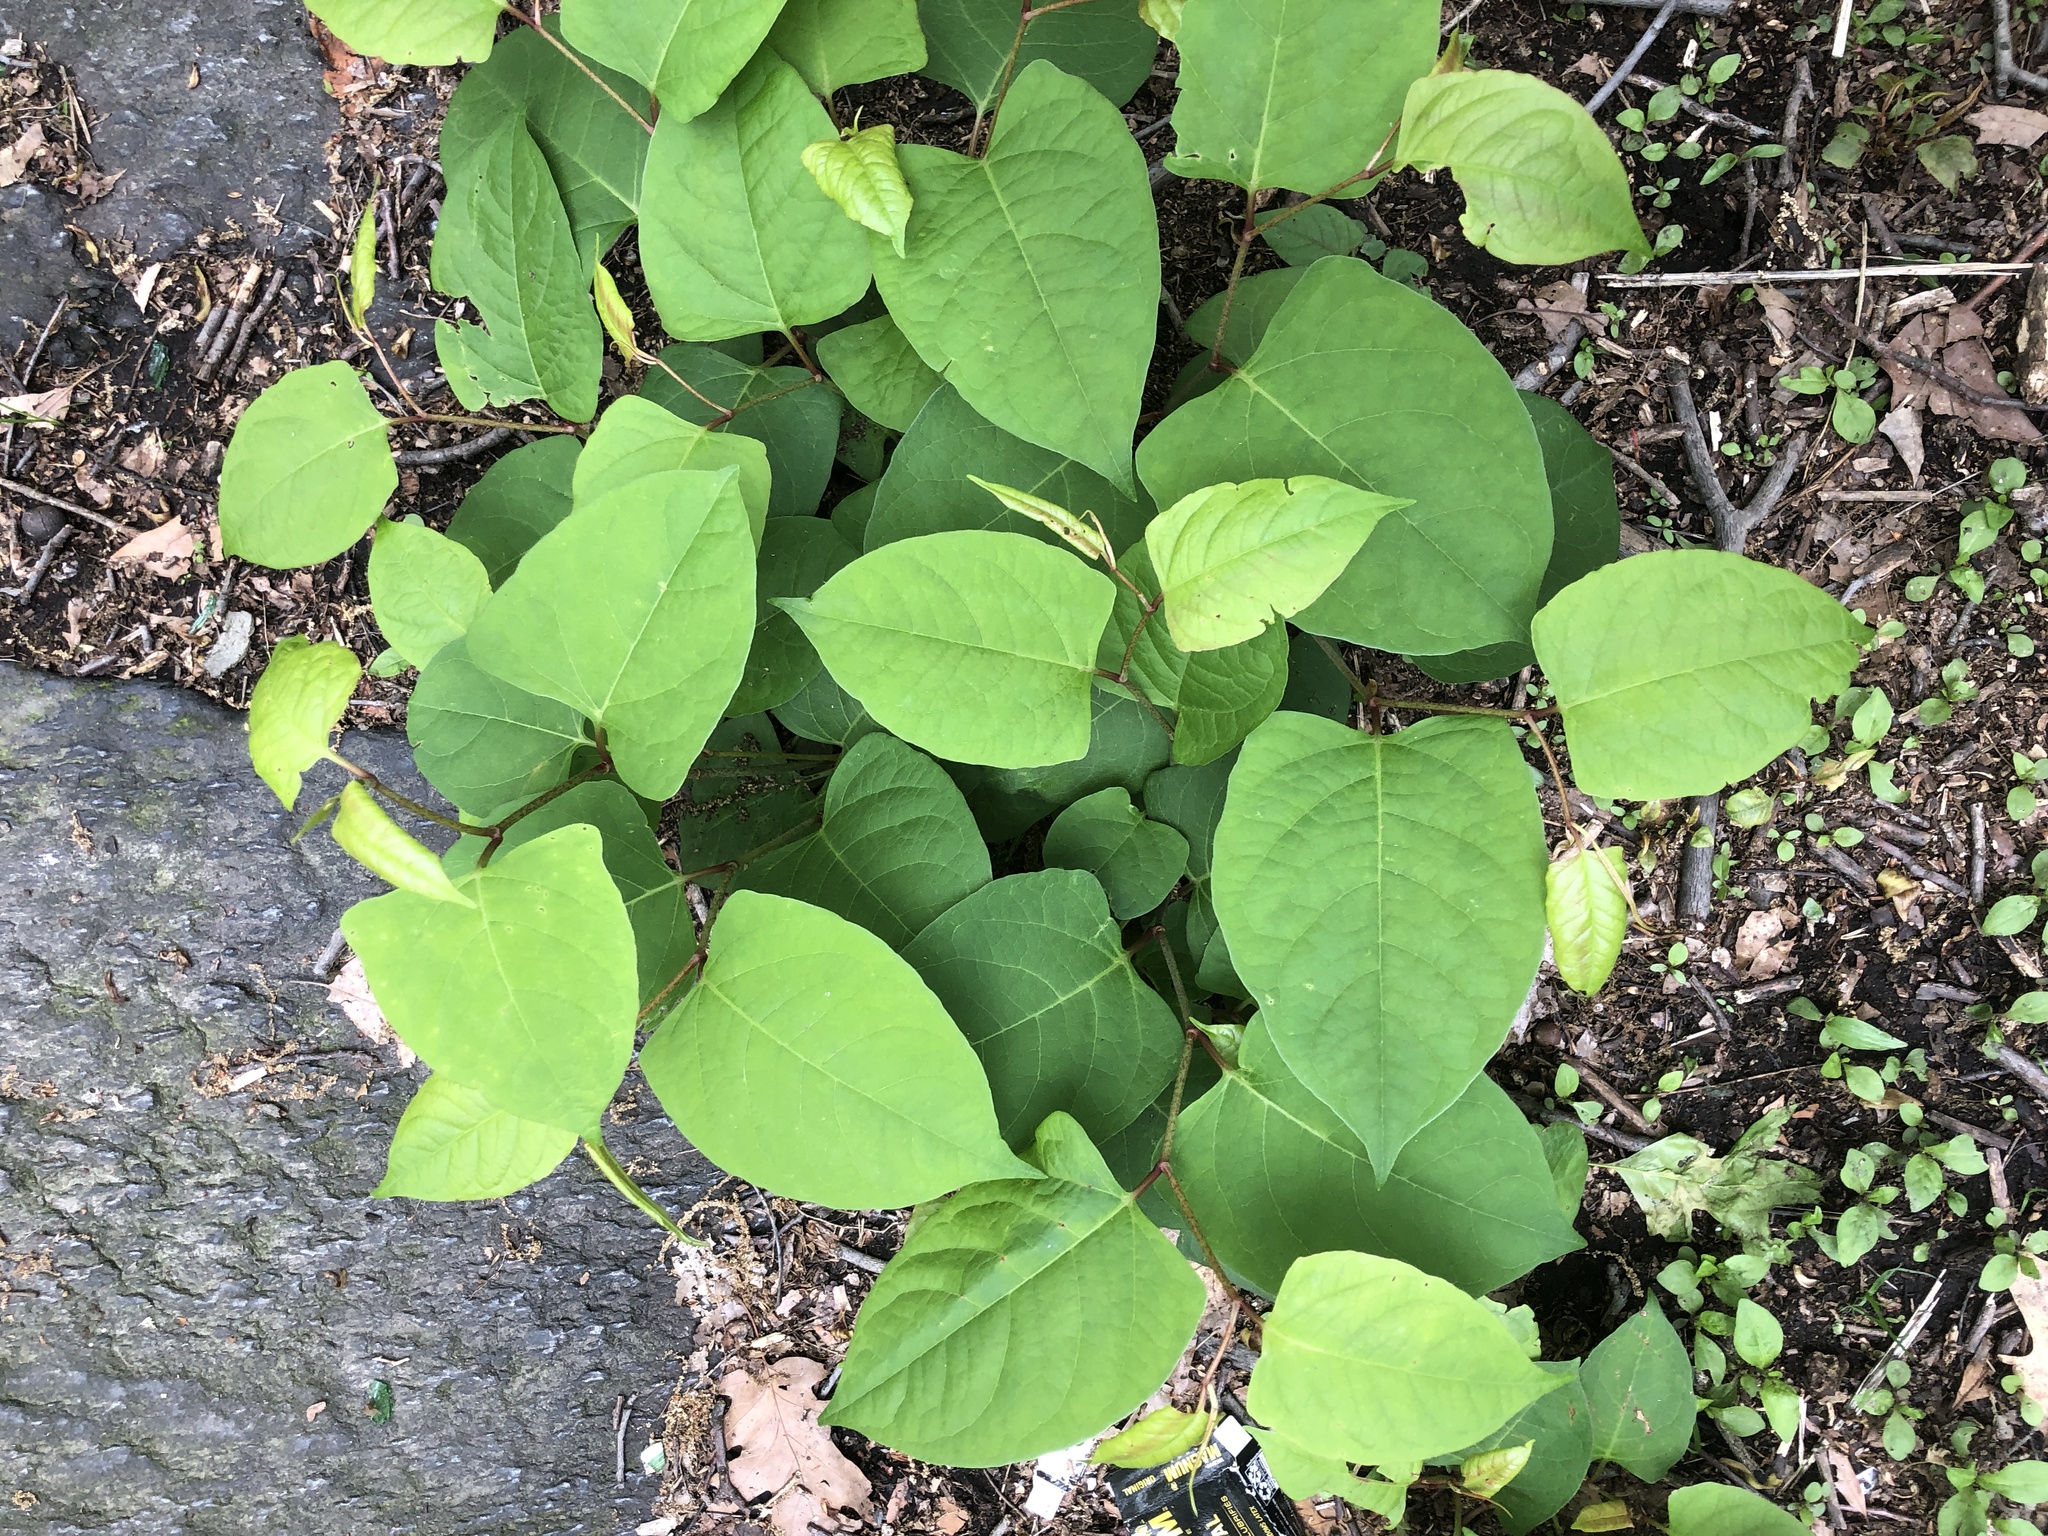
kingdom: Plantae
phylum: Tracheophyta
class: Magnoliopsida
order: Caryophyllales
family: Polygonaceae
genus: Reynoutria
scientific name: Reynoutria japonica
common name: Japanese knotweed
